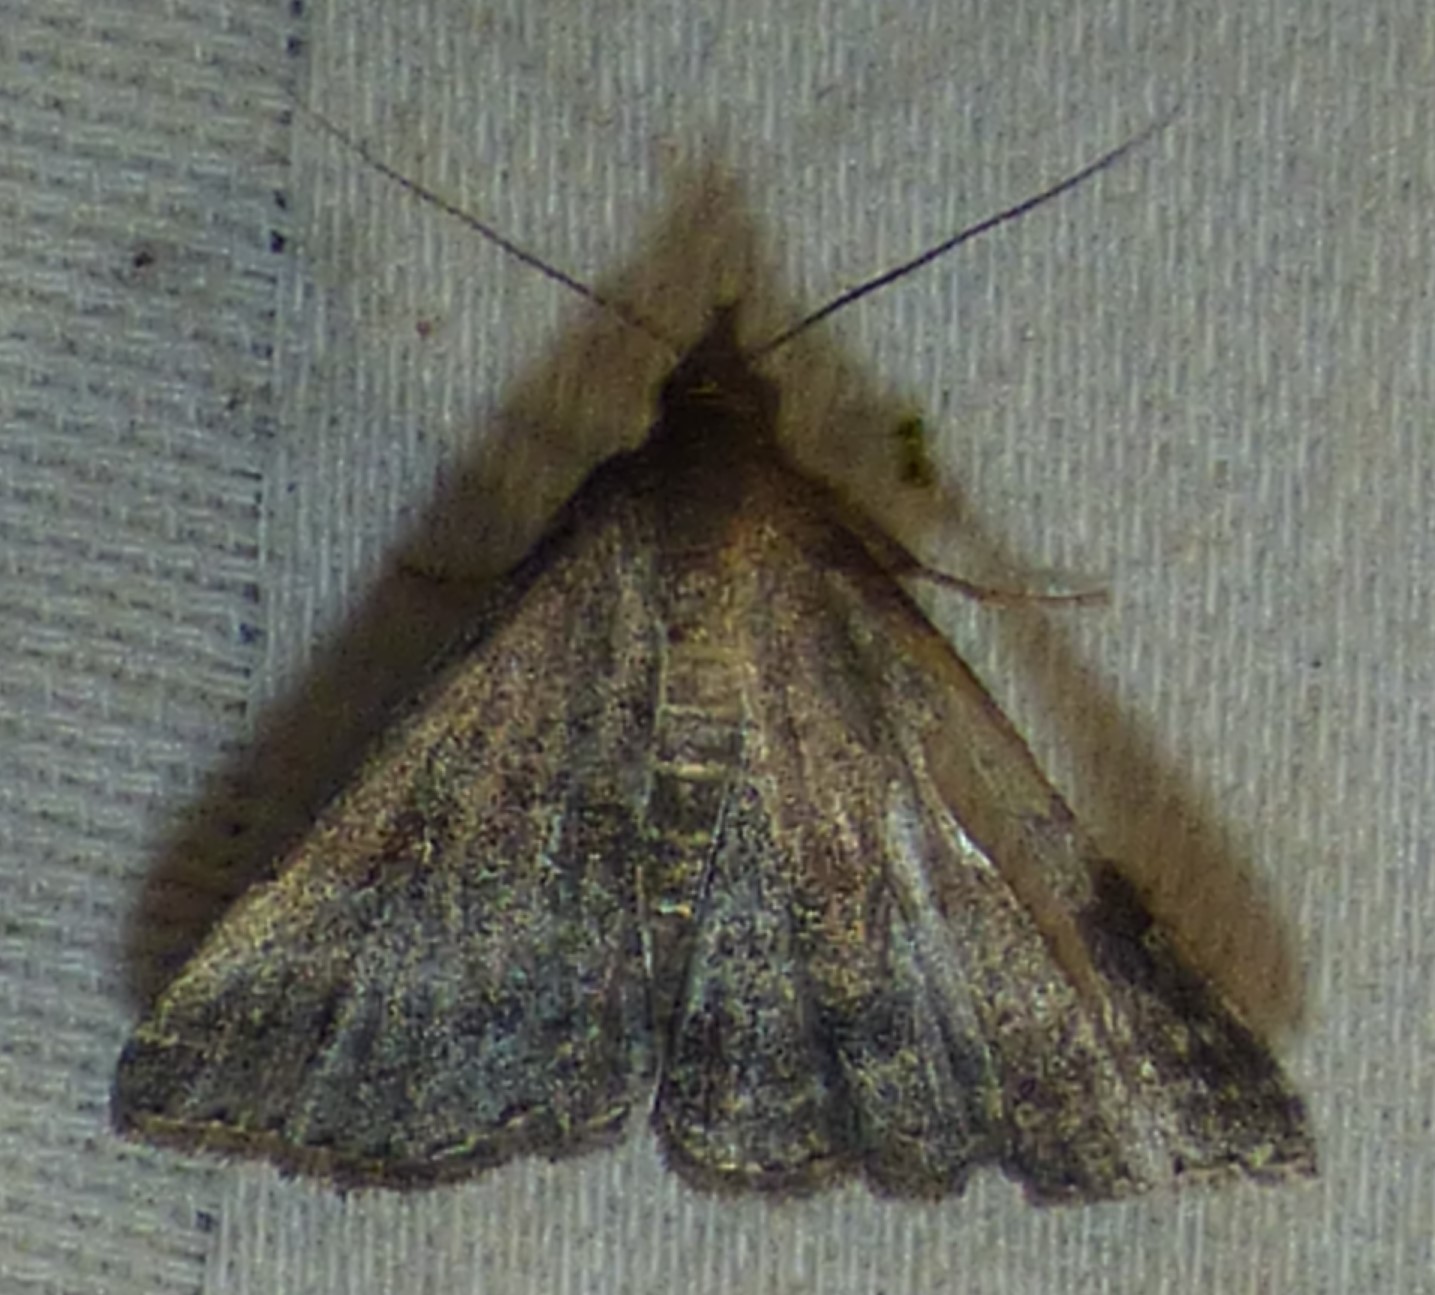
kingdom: Animalia
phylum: Arthropoda
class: Insecta
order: Lepidoptera
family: Erebidae
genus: Tetanolita
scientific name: Tetanolita floridana
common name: Florida tetanolita moth
